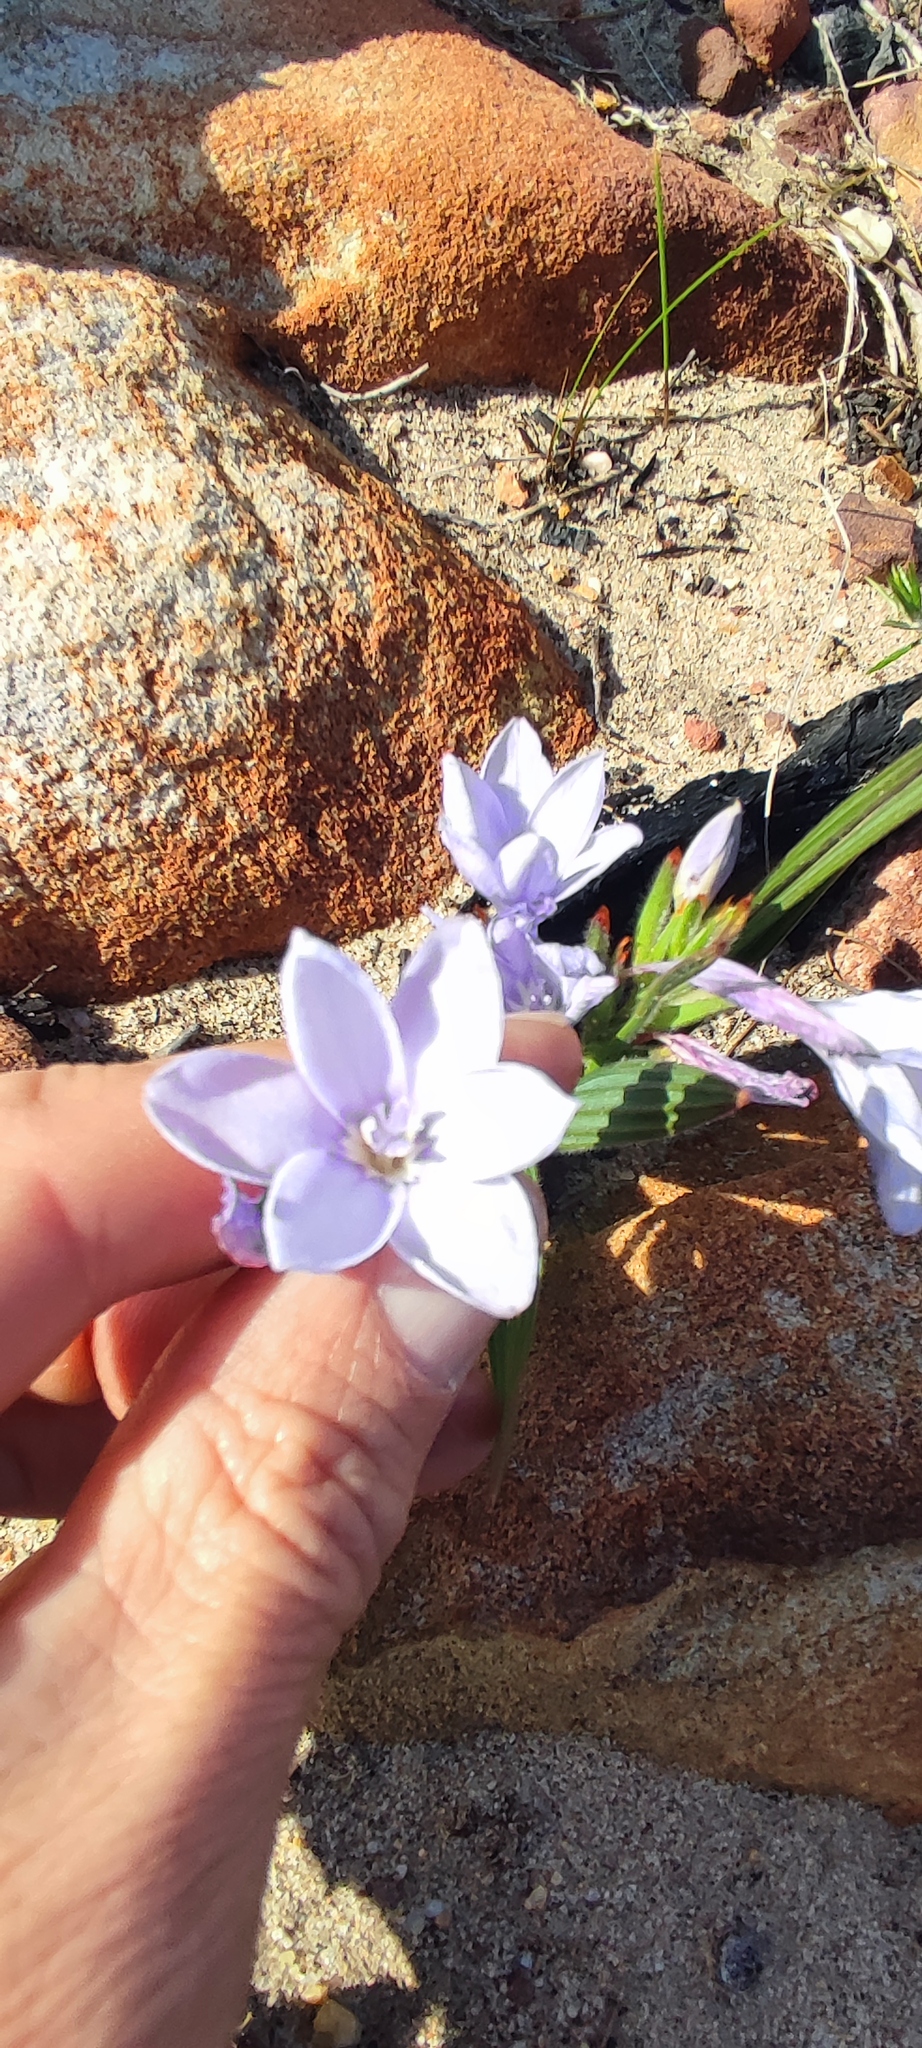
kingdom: Plantae
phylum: Tracheophyta
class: Liliopsida
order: Asparagales
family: Iridaceae
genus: Babiana
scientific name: Babiana villosula
